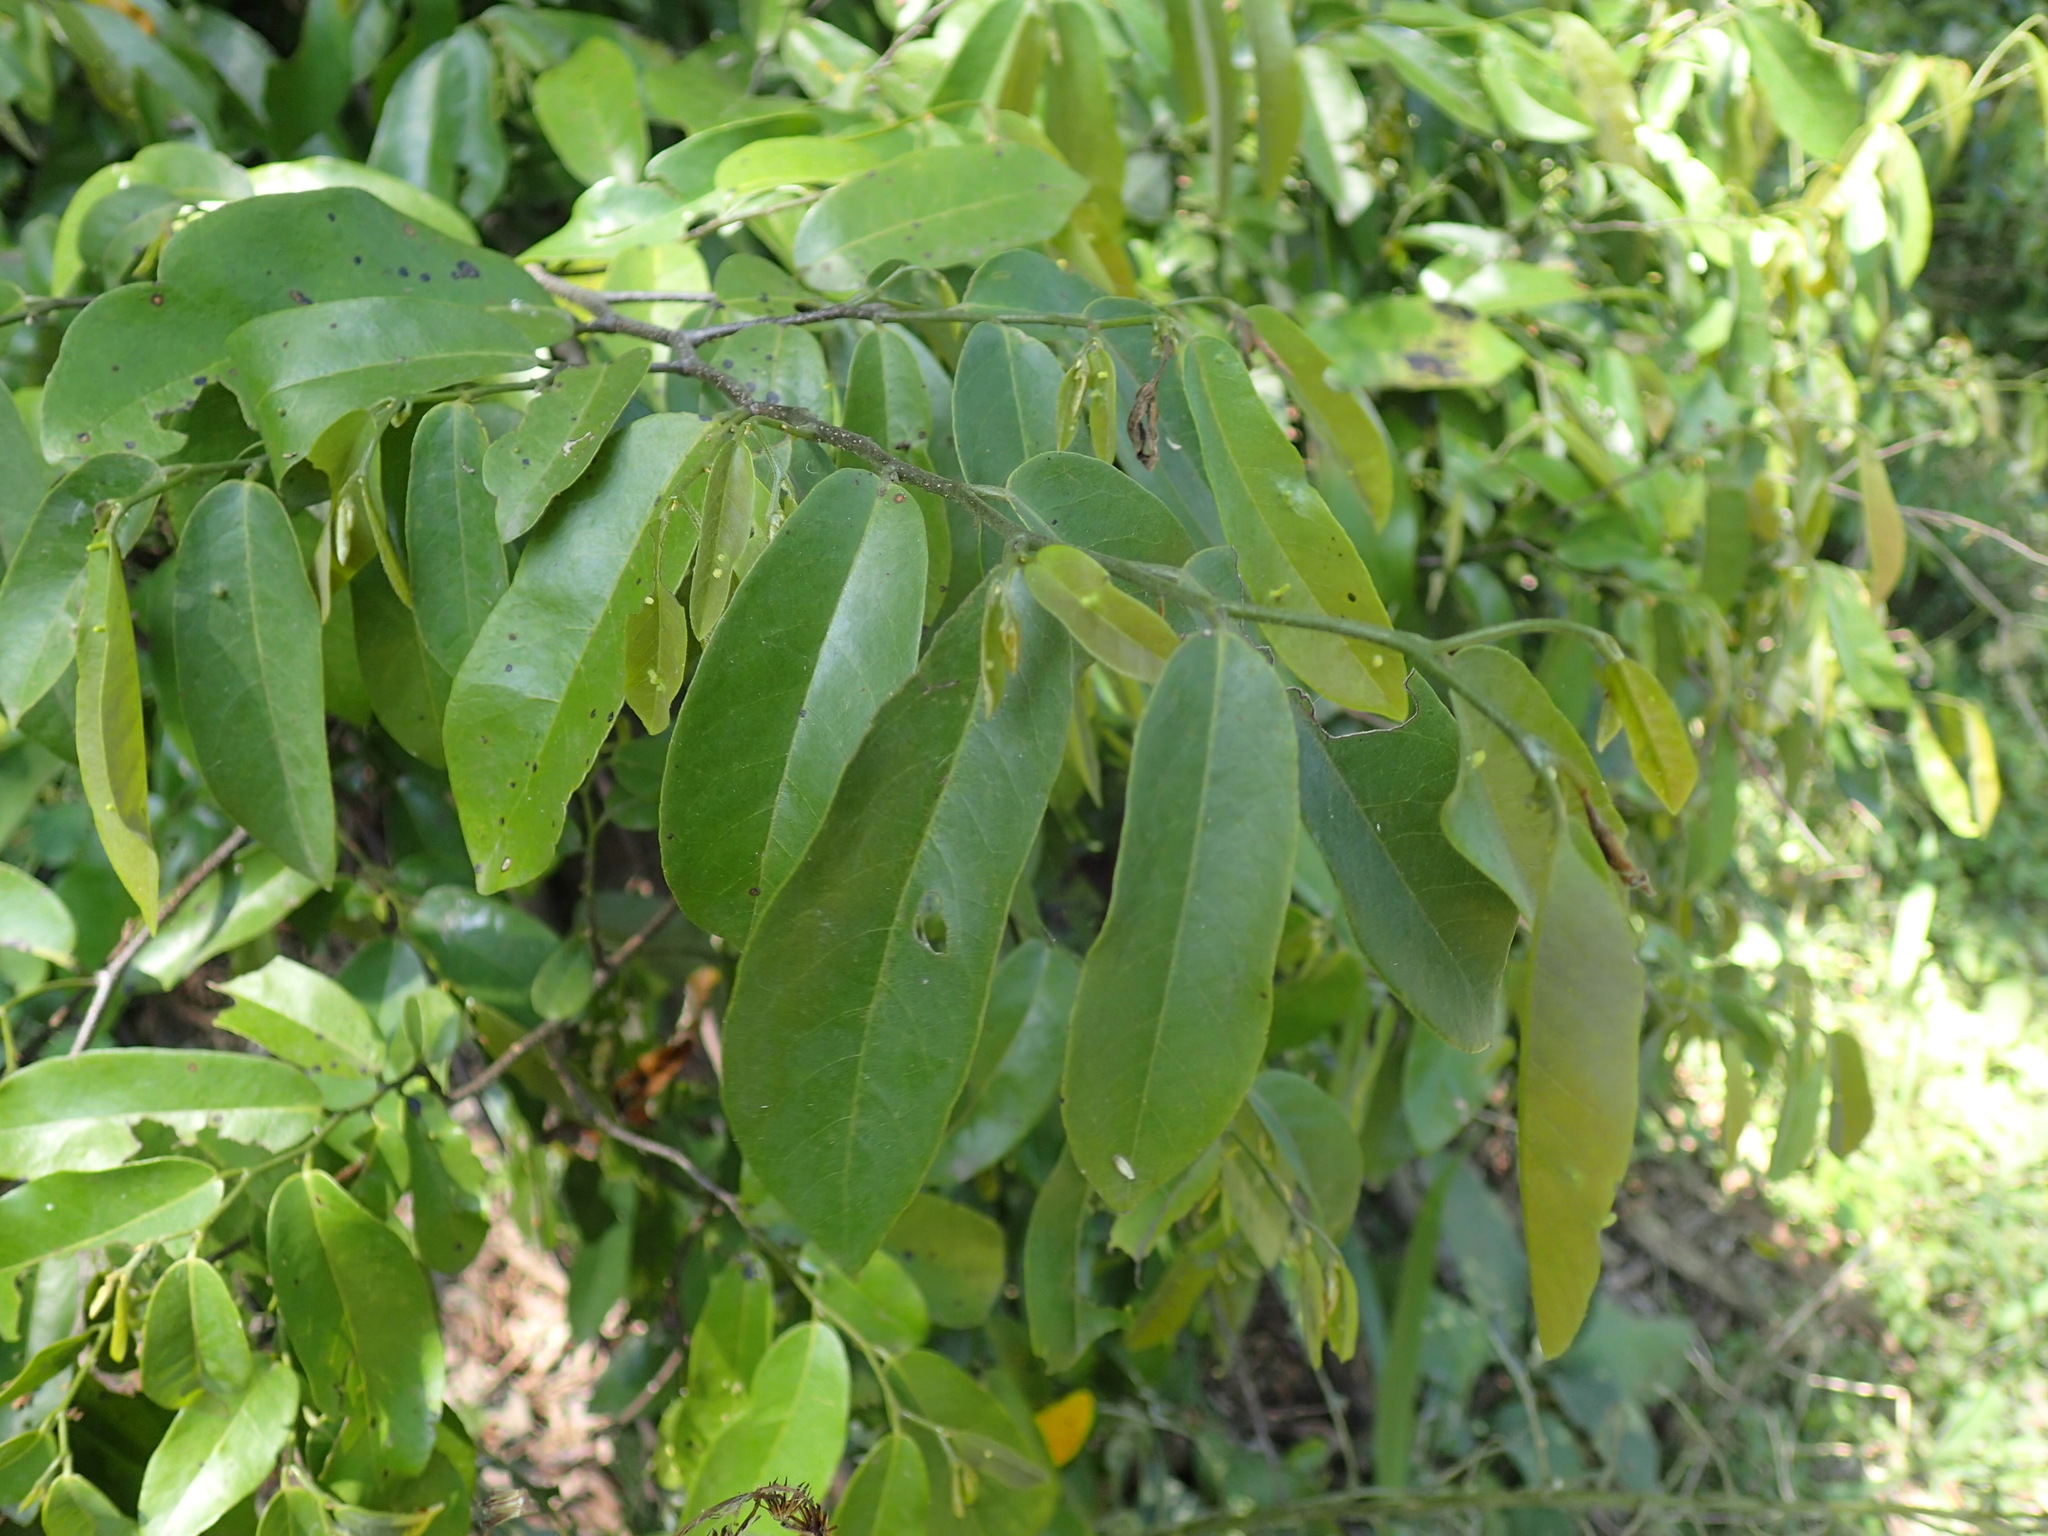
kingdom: Plantae
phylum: Tracheophyta
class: Magnoliopsida
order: Magnoliales
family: Annonaceae
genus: Monanthotaxis
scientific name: Monanthotaxis caffra
